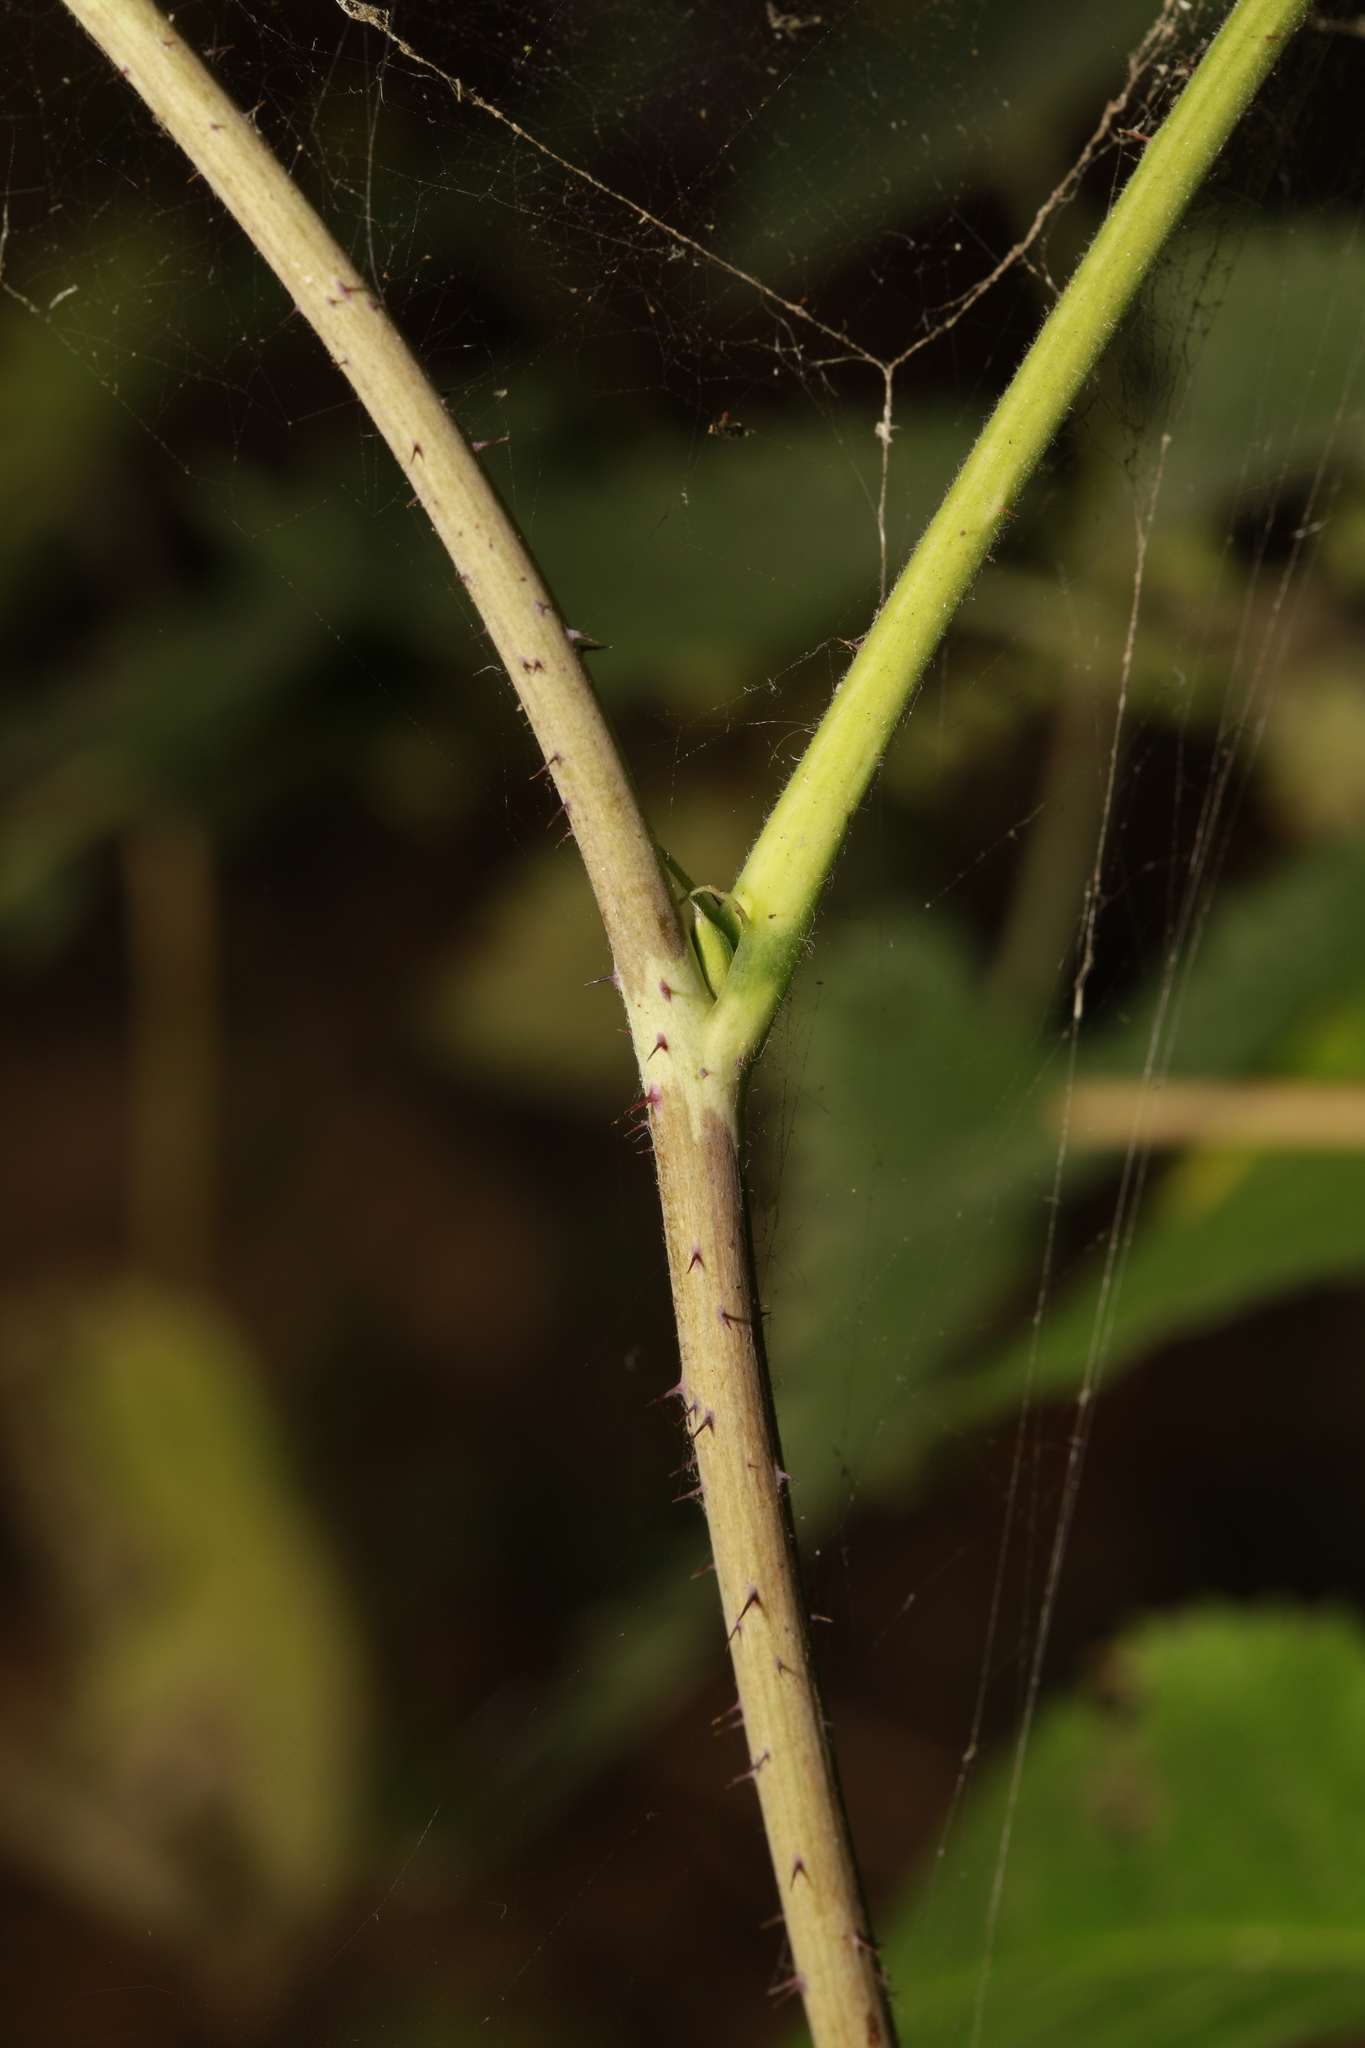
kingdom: Plantae
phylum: Tracheophyta
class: Magnoliopsida
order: Rosales
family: Rosaceae
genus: Rubus
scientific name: Rubus idaeus
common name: Raspberry
